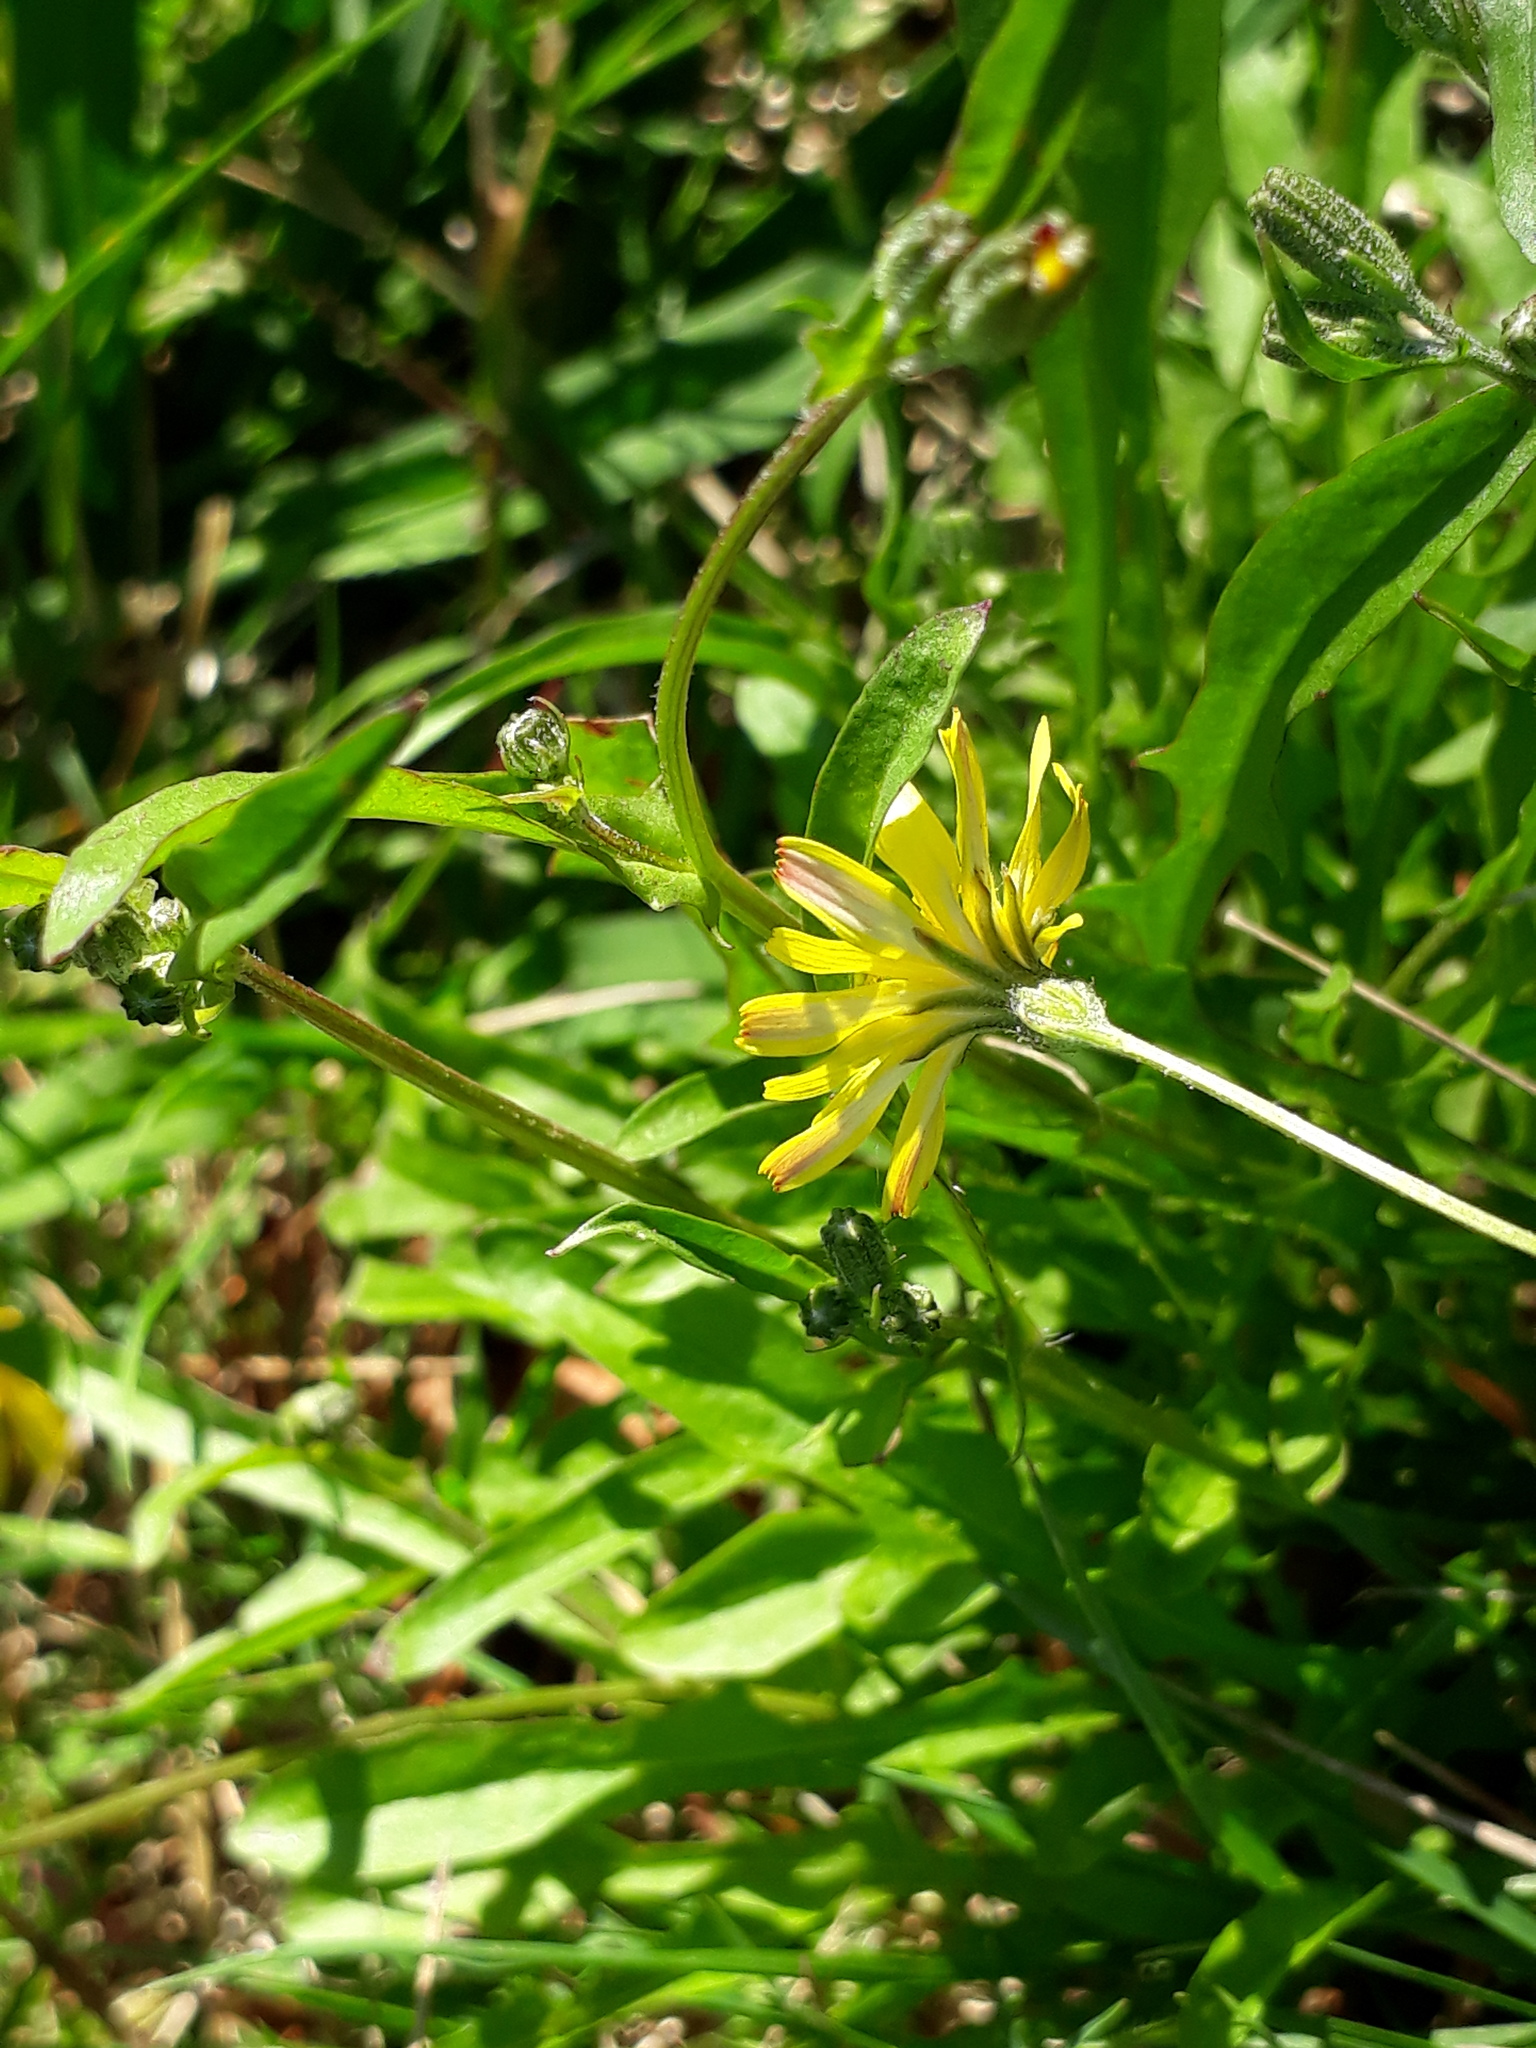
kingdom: Plantae
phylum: Tracheophyta
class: Magnoliopsida
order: Asterales
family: Asteraceae
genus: Crepis
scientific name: Crepis capillaris
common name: Smooth hawksbeard
